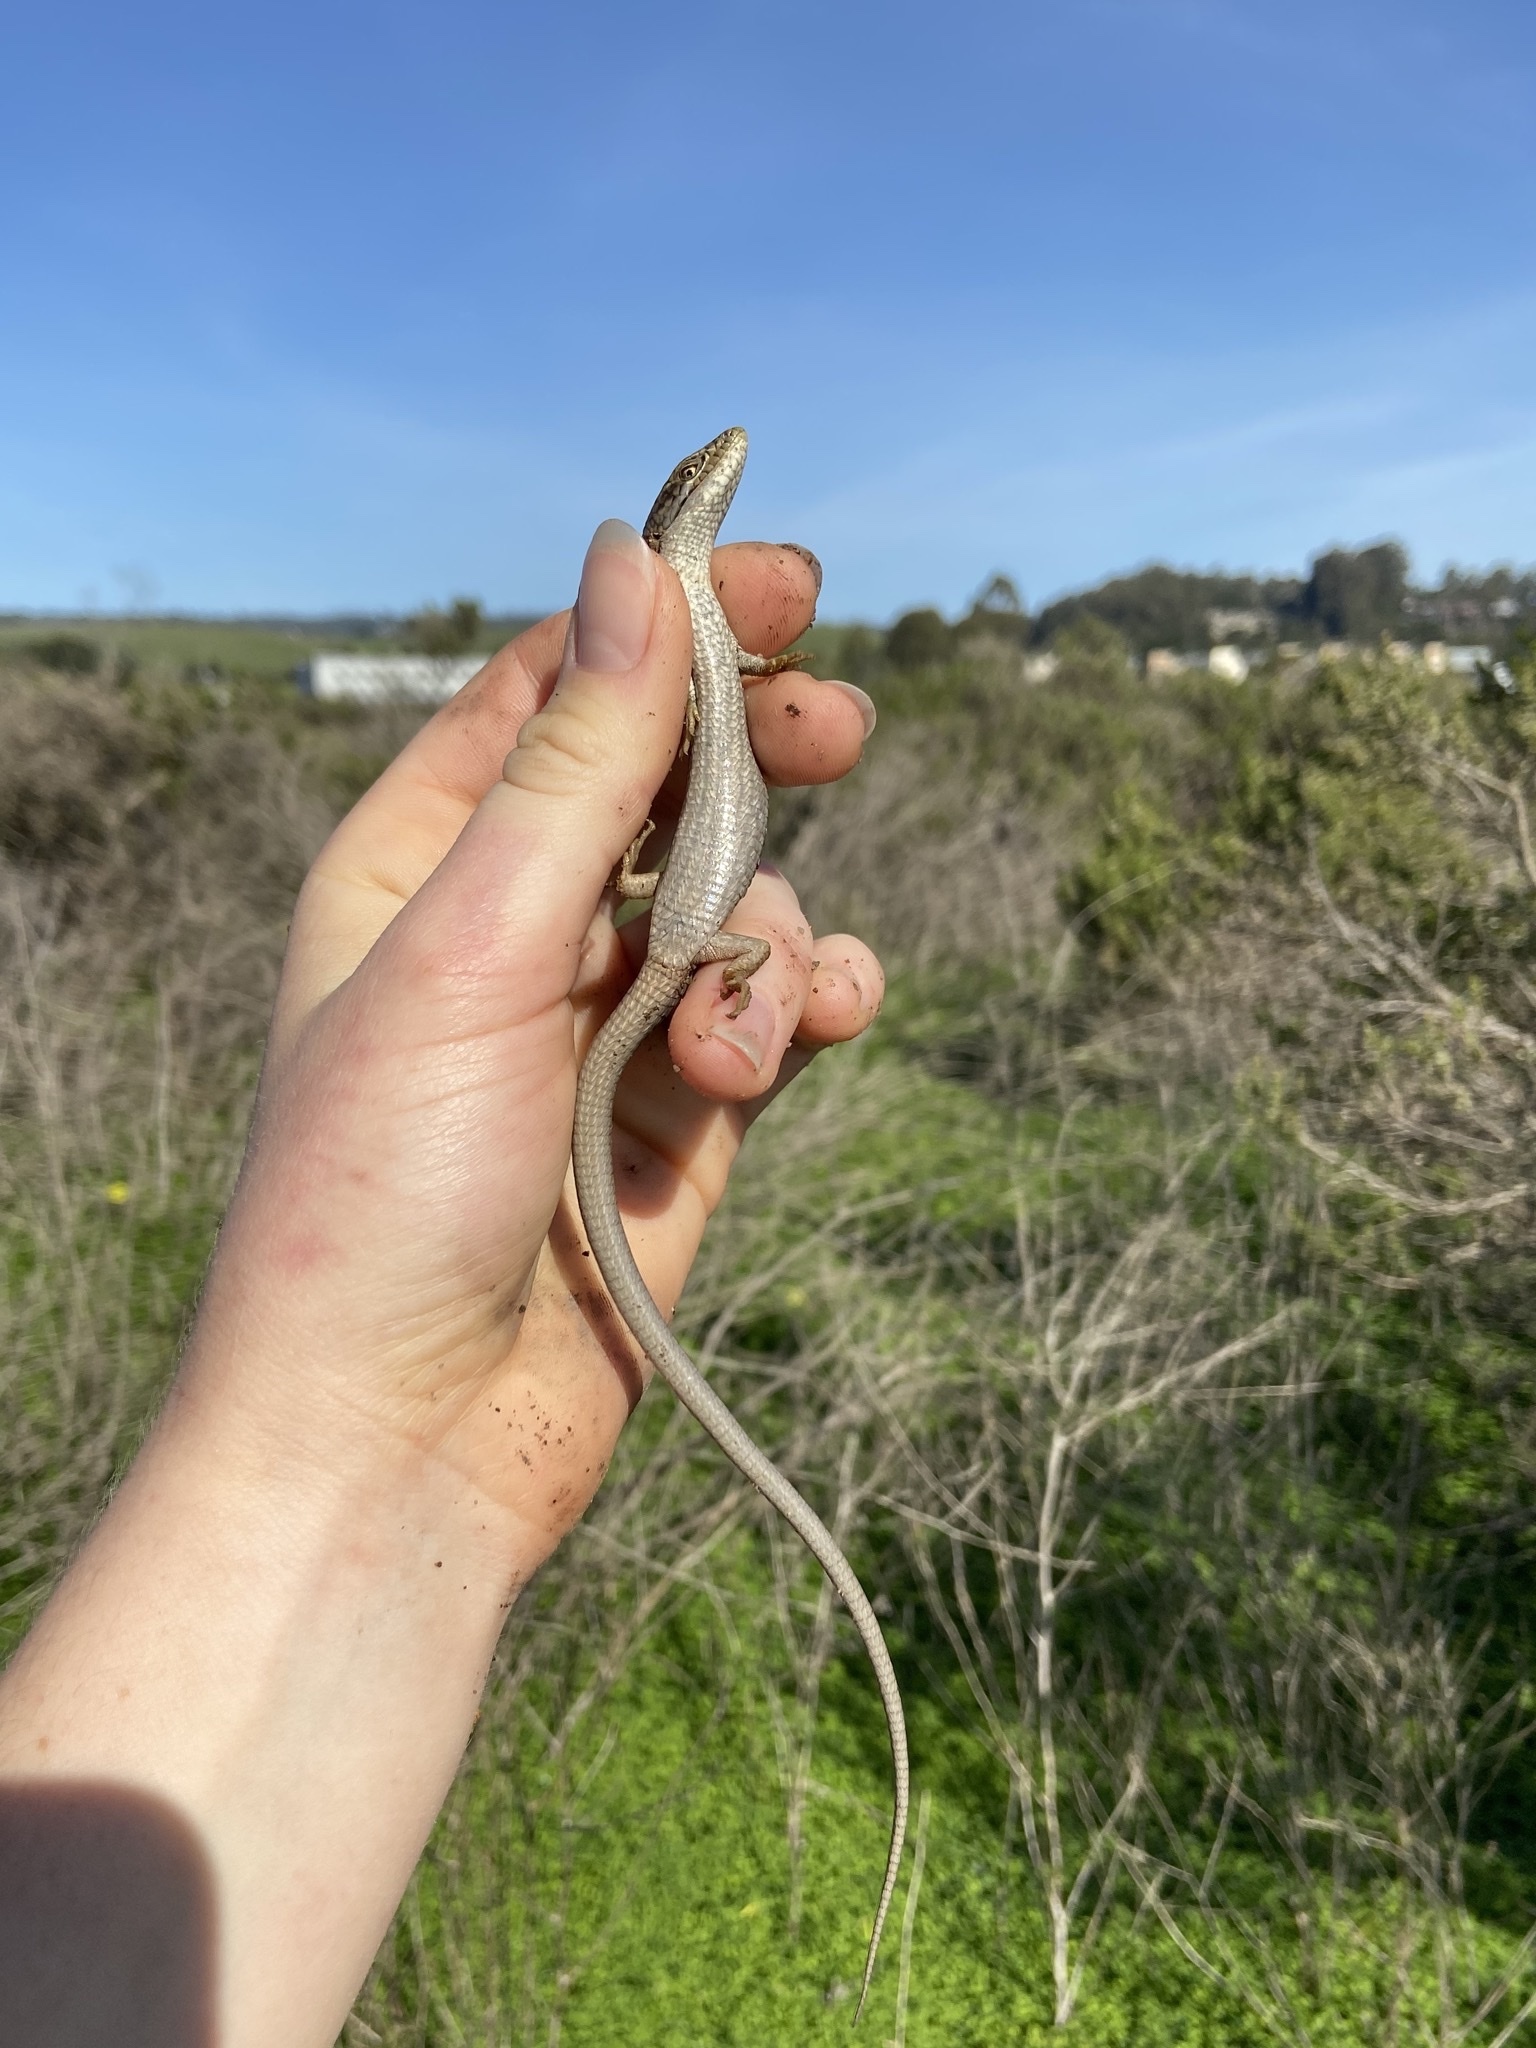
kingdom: Animalia
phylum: Chordata
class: Squamata
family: Anguidae
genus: Elgaria
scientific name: Elgaria multicarinata
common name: Southern alligator lizard
